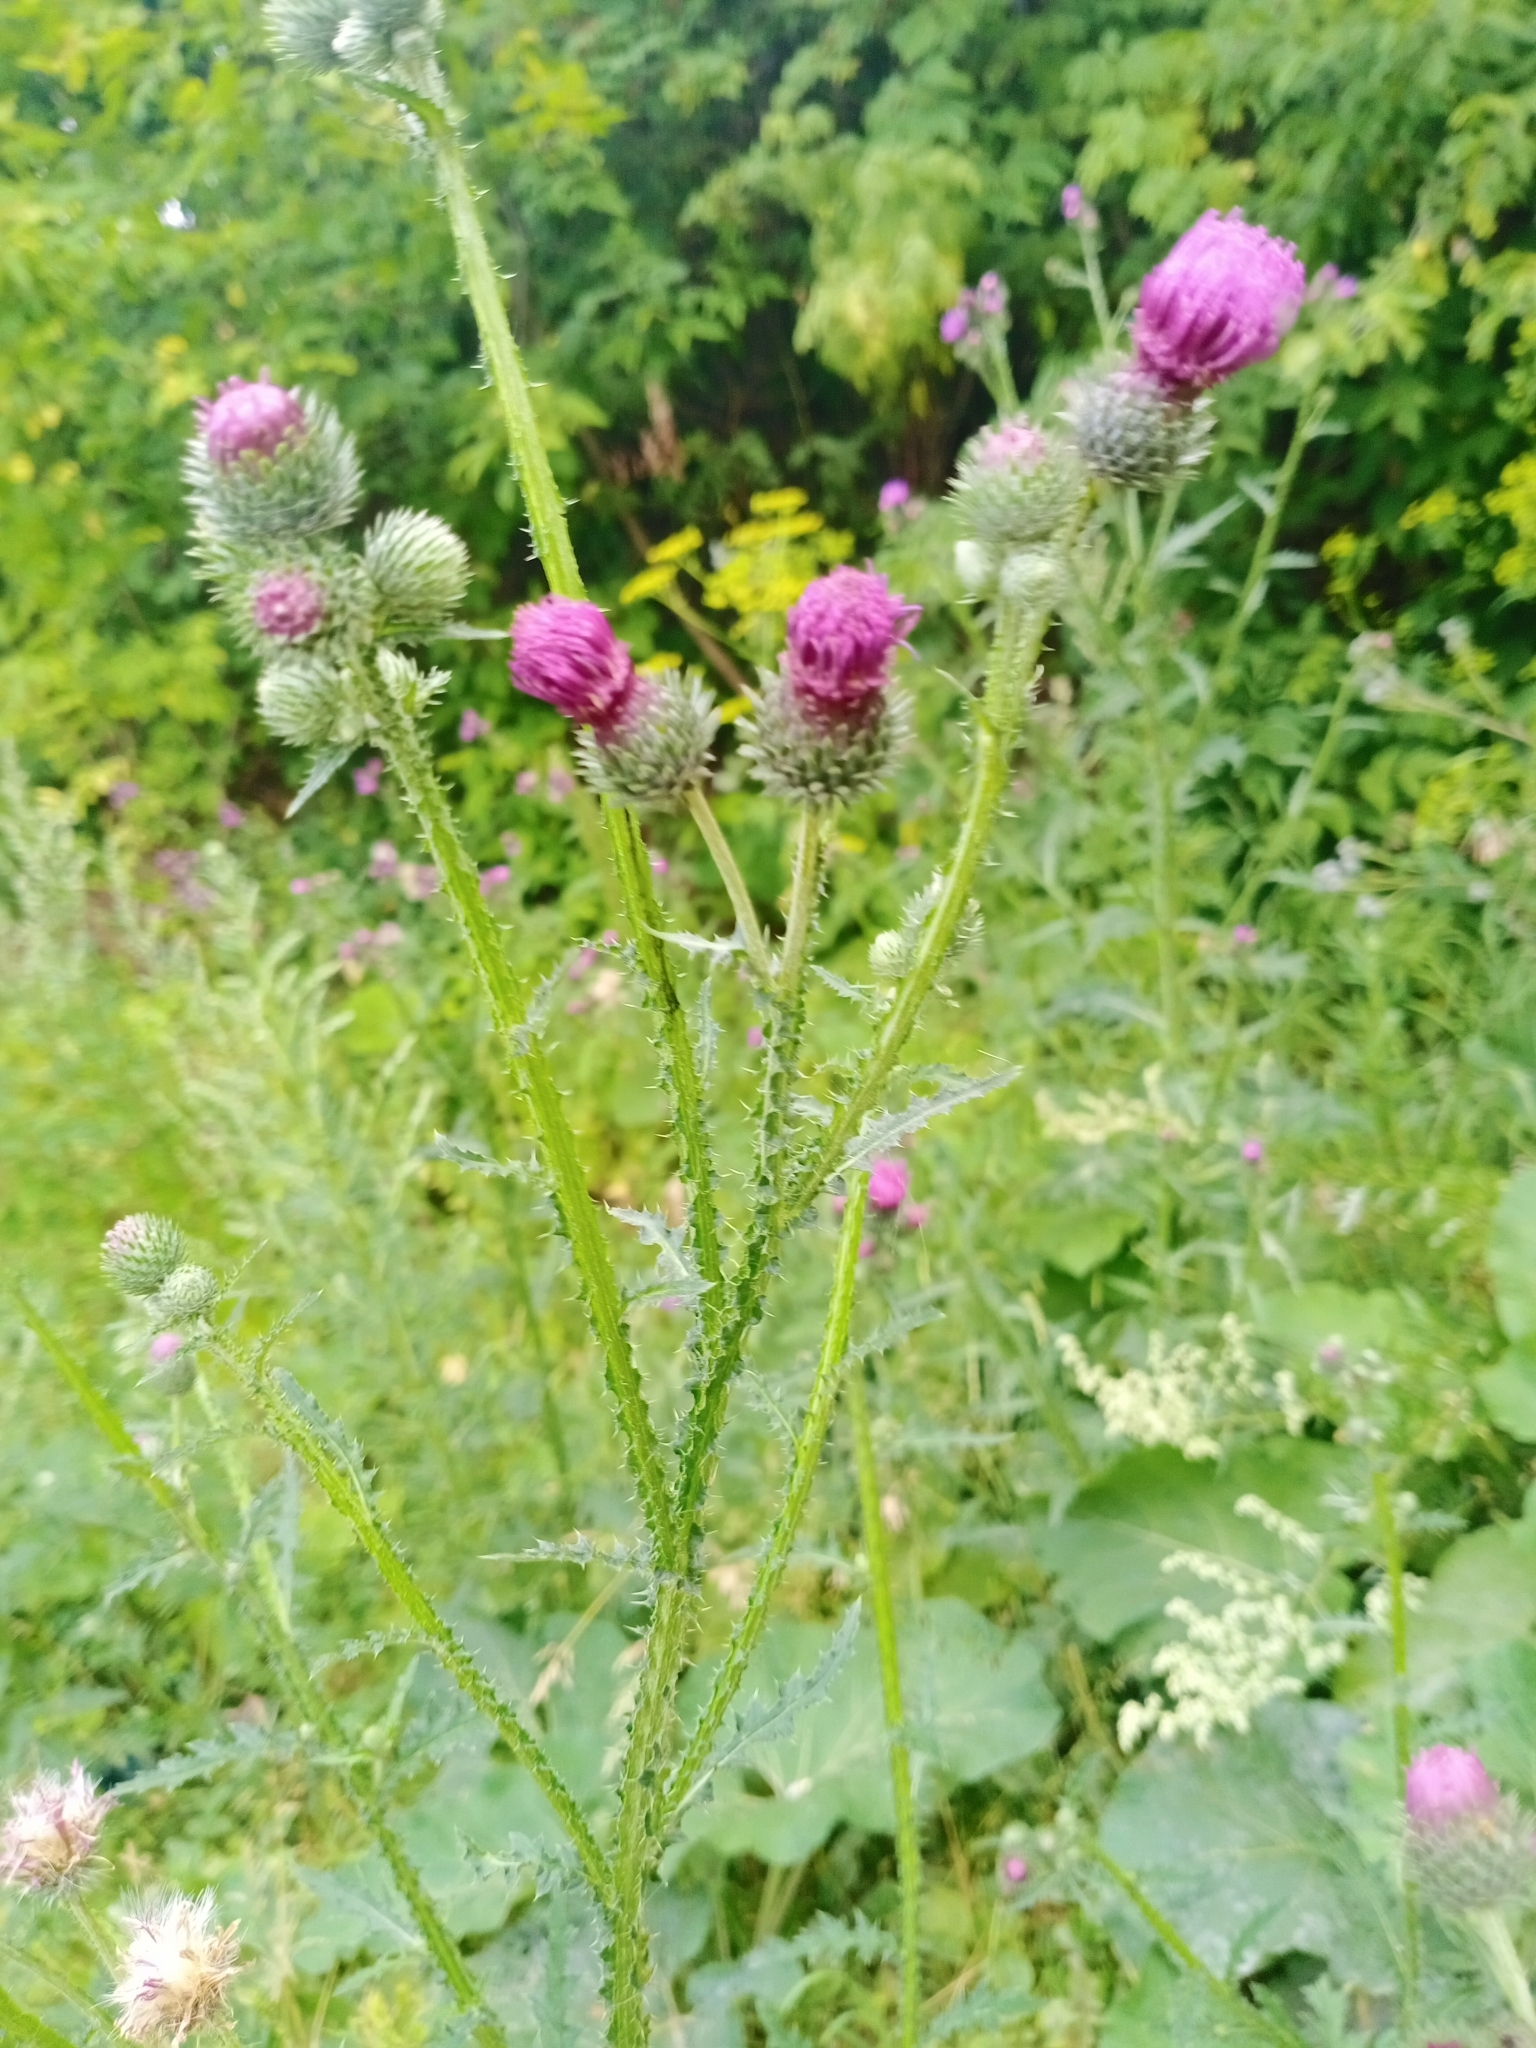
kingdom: Plantae
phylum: Tracheophyta
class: Magnoliopsida
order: Asterales
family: Asteraceae
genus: Carduus
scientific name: Carduus crispus
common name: Welted thistle
